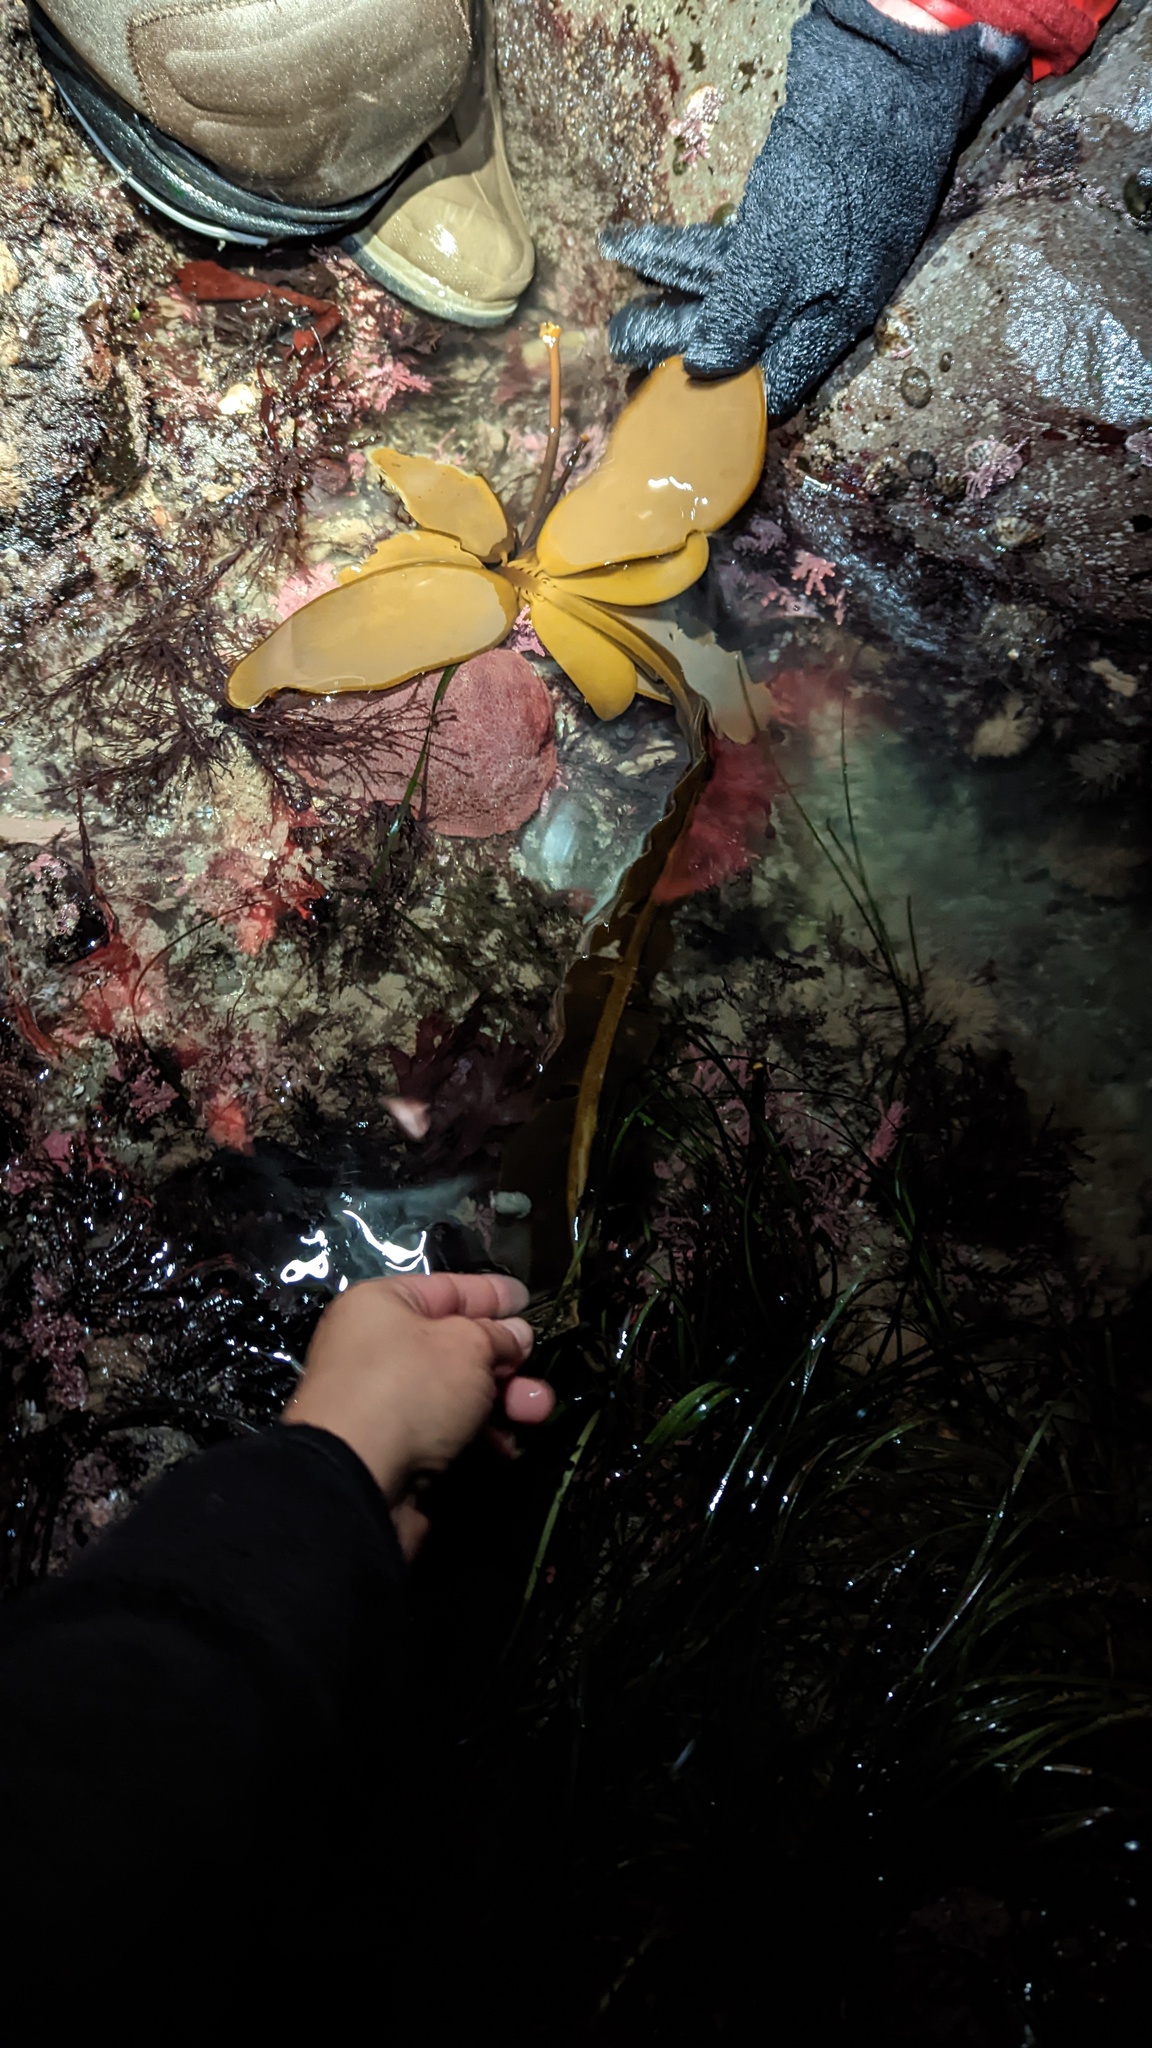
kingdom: Chromista
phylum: Ochrophyta
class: Phaeophyceae
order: Laminariales
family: Alariaceae
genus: Alaria
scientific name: Alaria marginata
